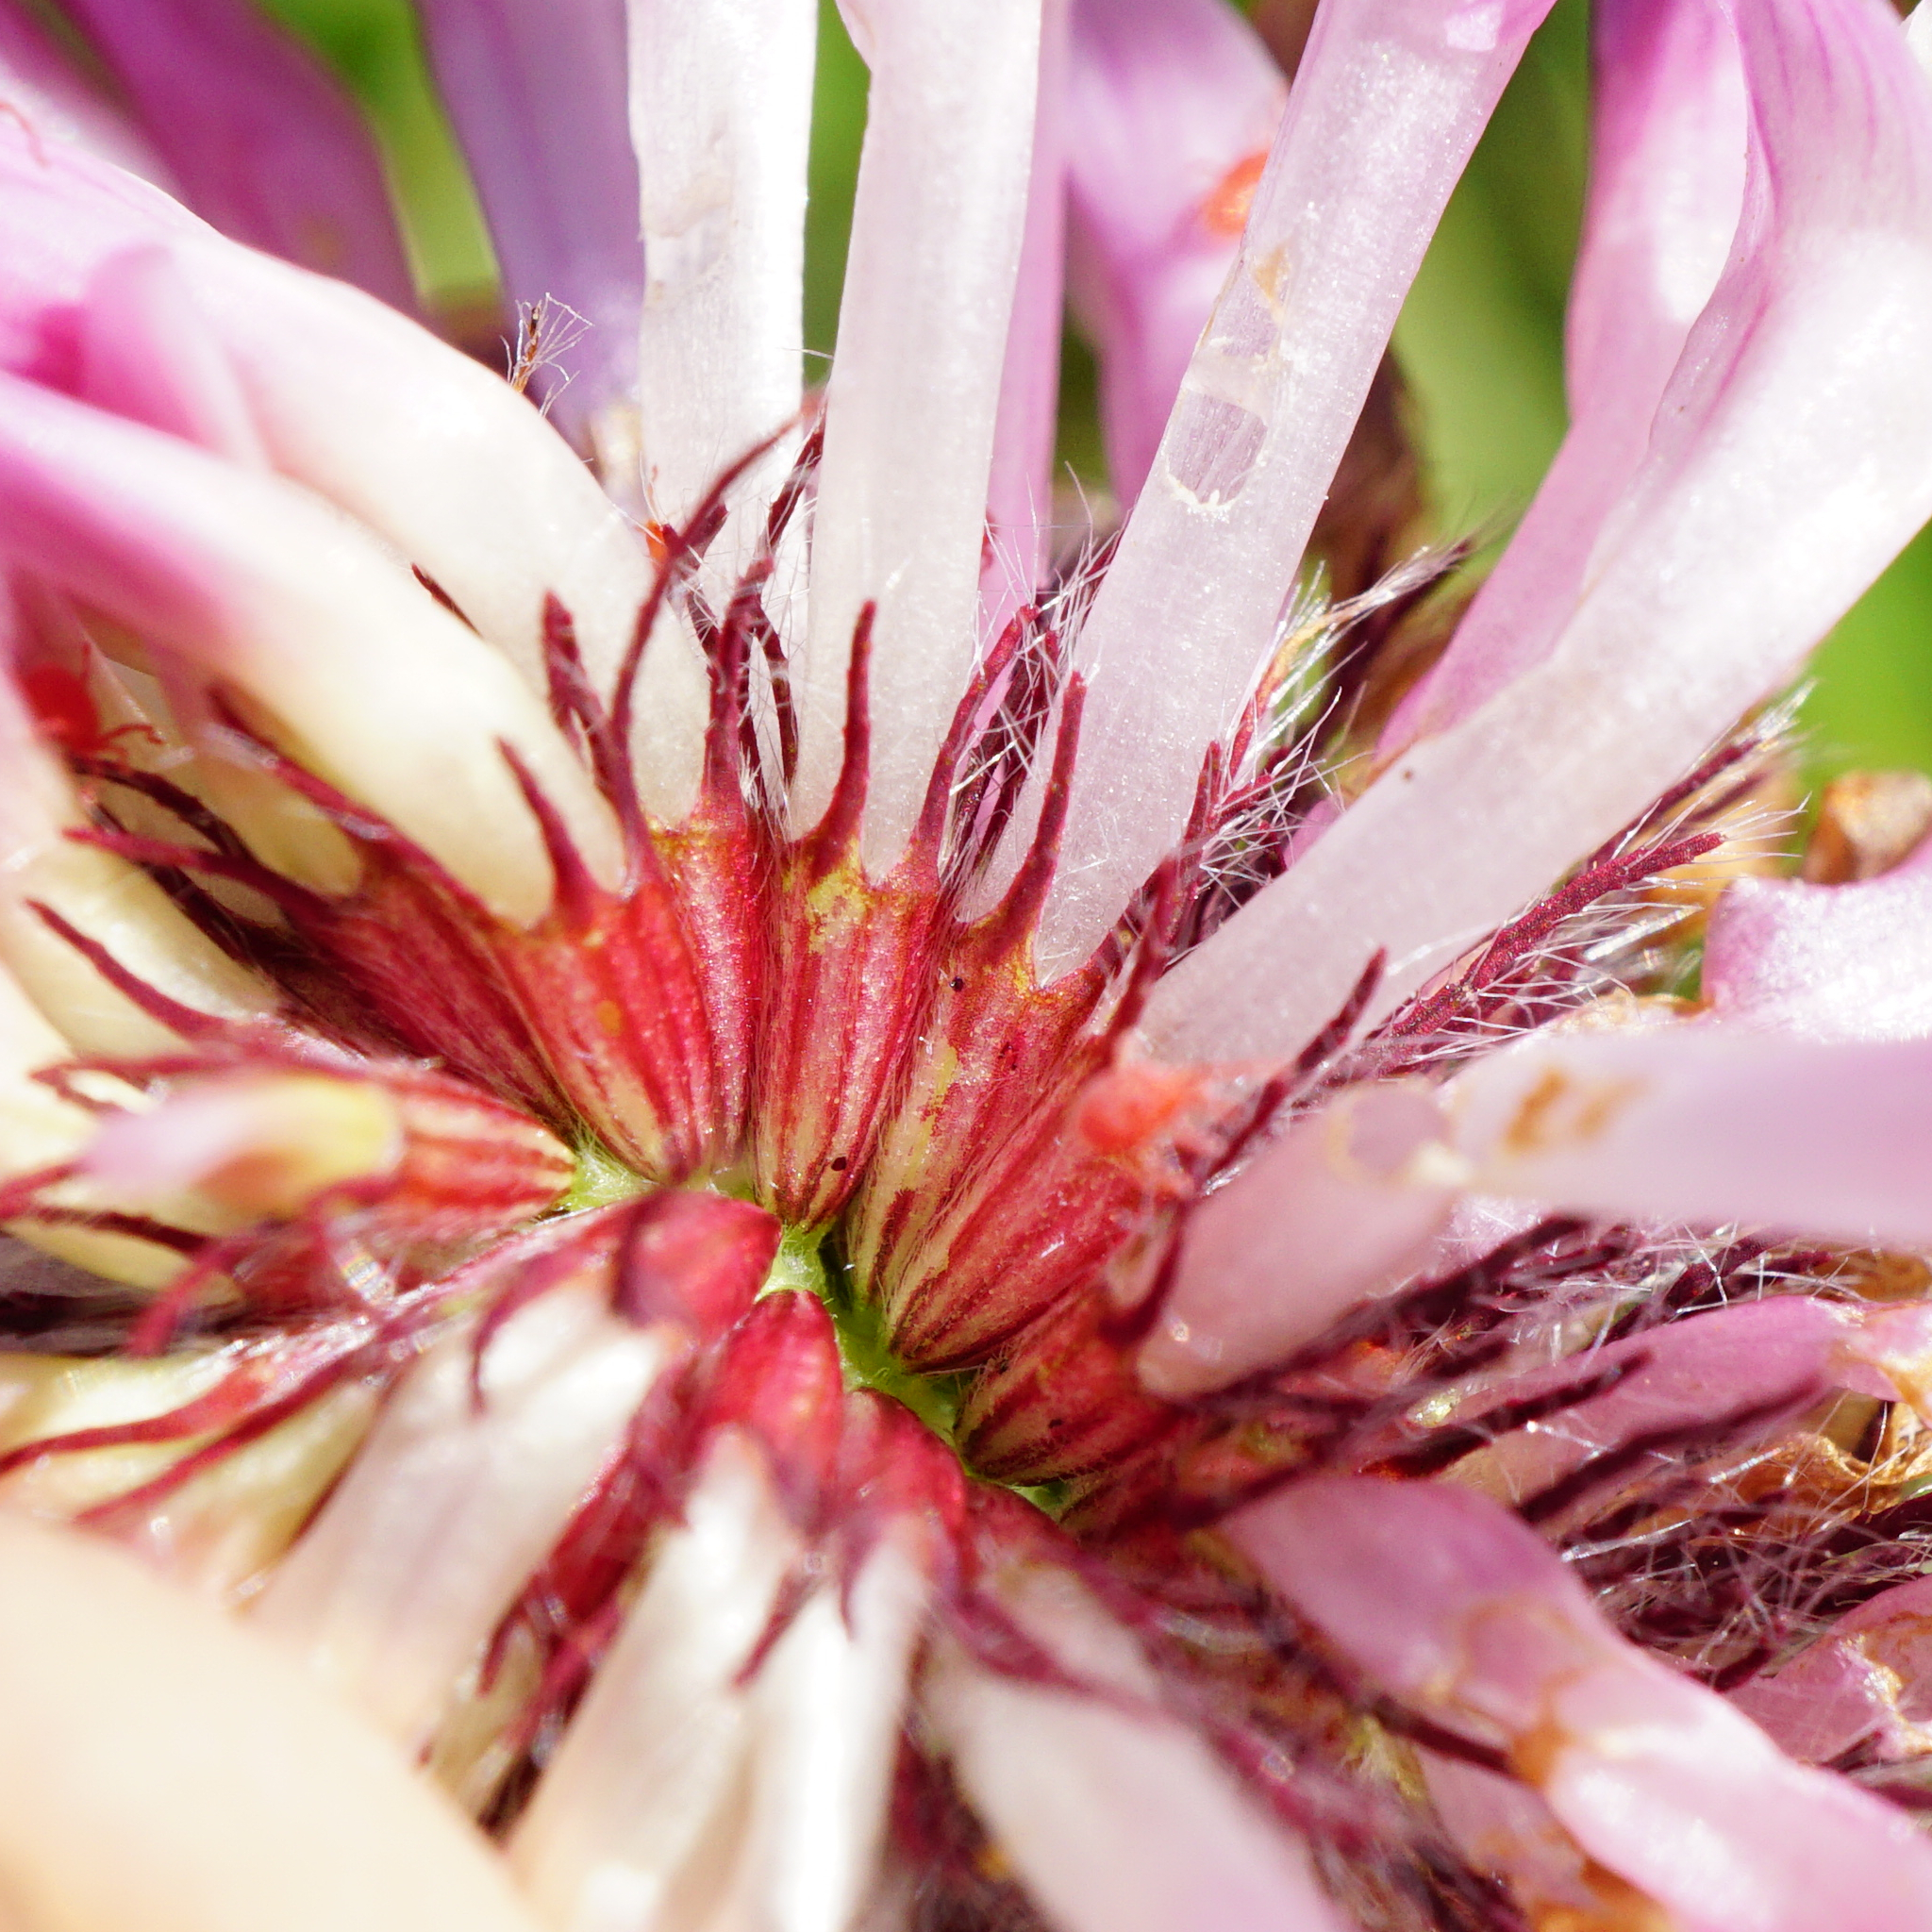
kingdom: Plantae
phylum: Tracheophyta
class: Magnoliopsida
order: Fabales
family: Fabaceae
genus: Trifolium
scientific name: Trifolium pratense
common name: Red clover
